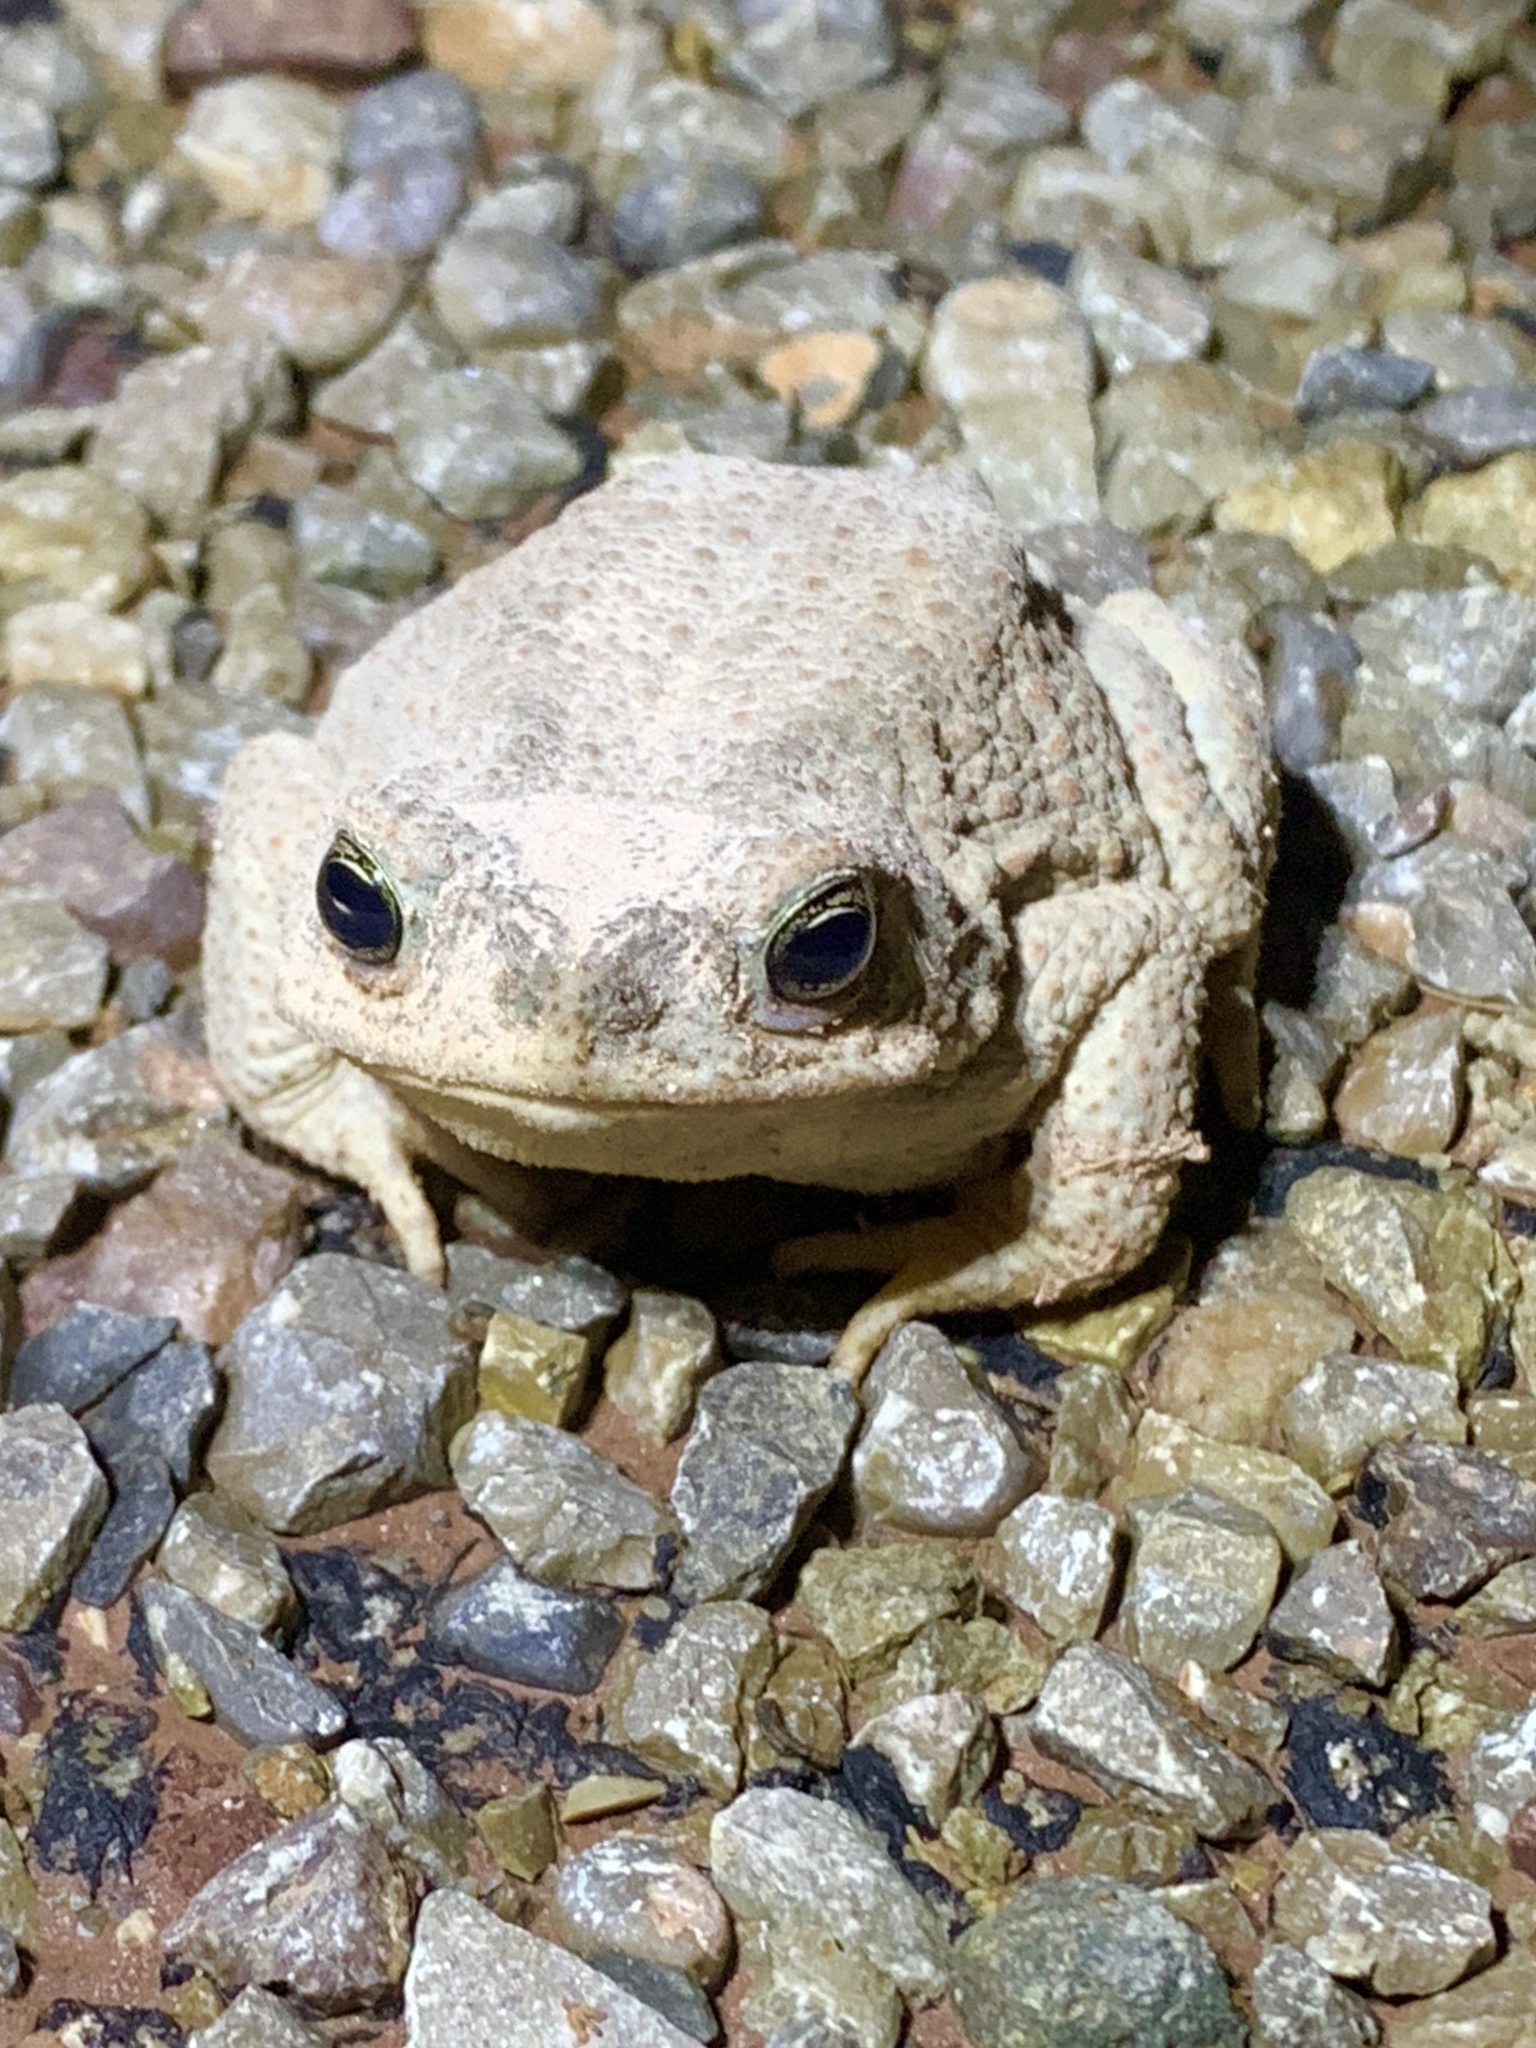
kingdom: Animalia
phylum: Chordata
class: Amphibia
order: Anura
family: Bufonidae
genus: Anaxyrus
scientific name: Anaxyrus punctatus
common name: Red-spotted toad
